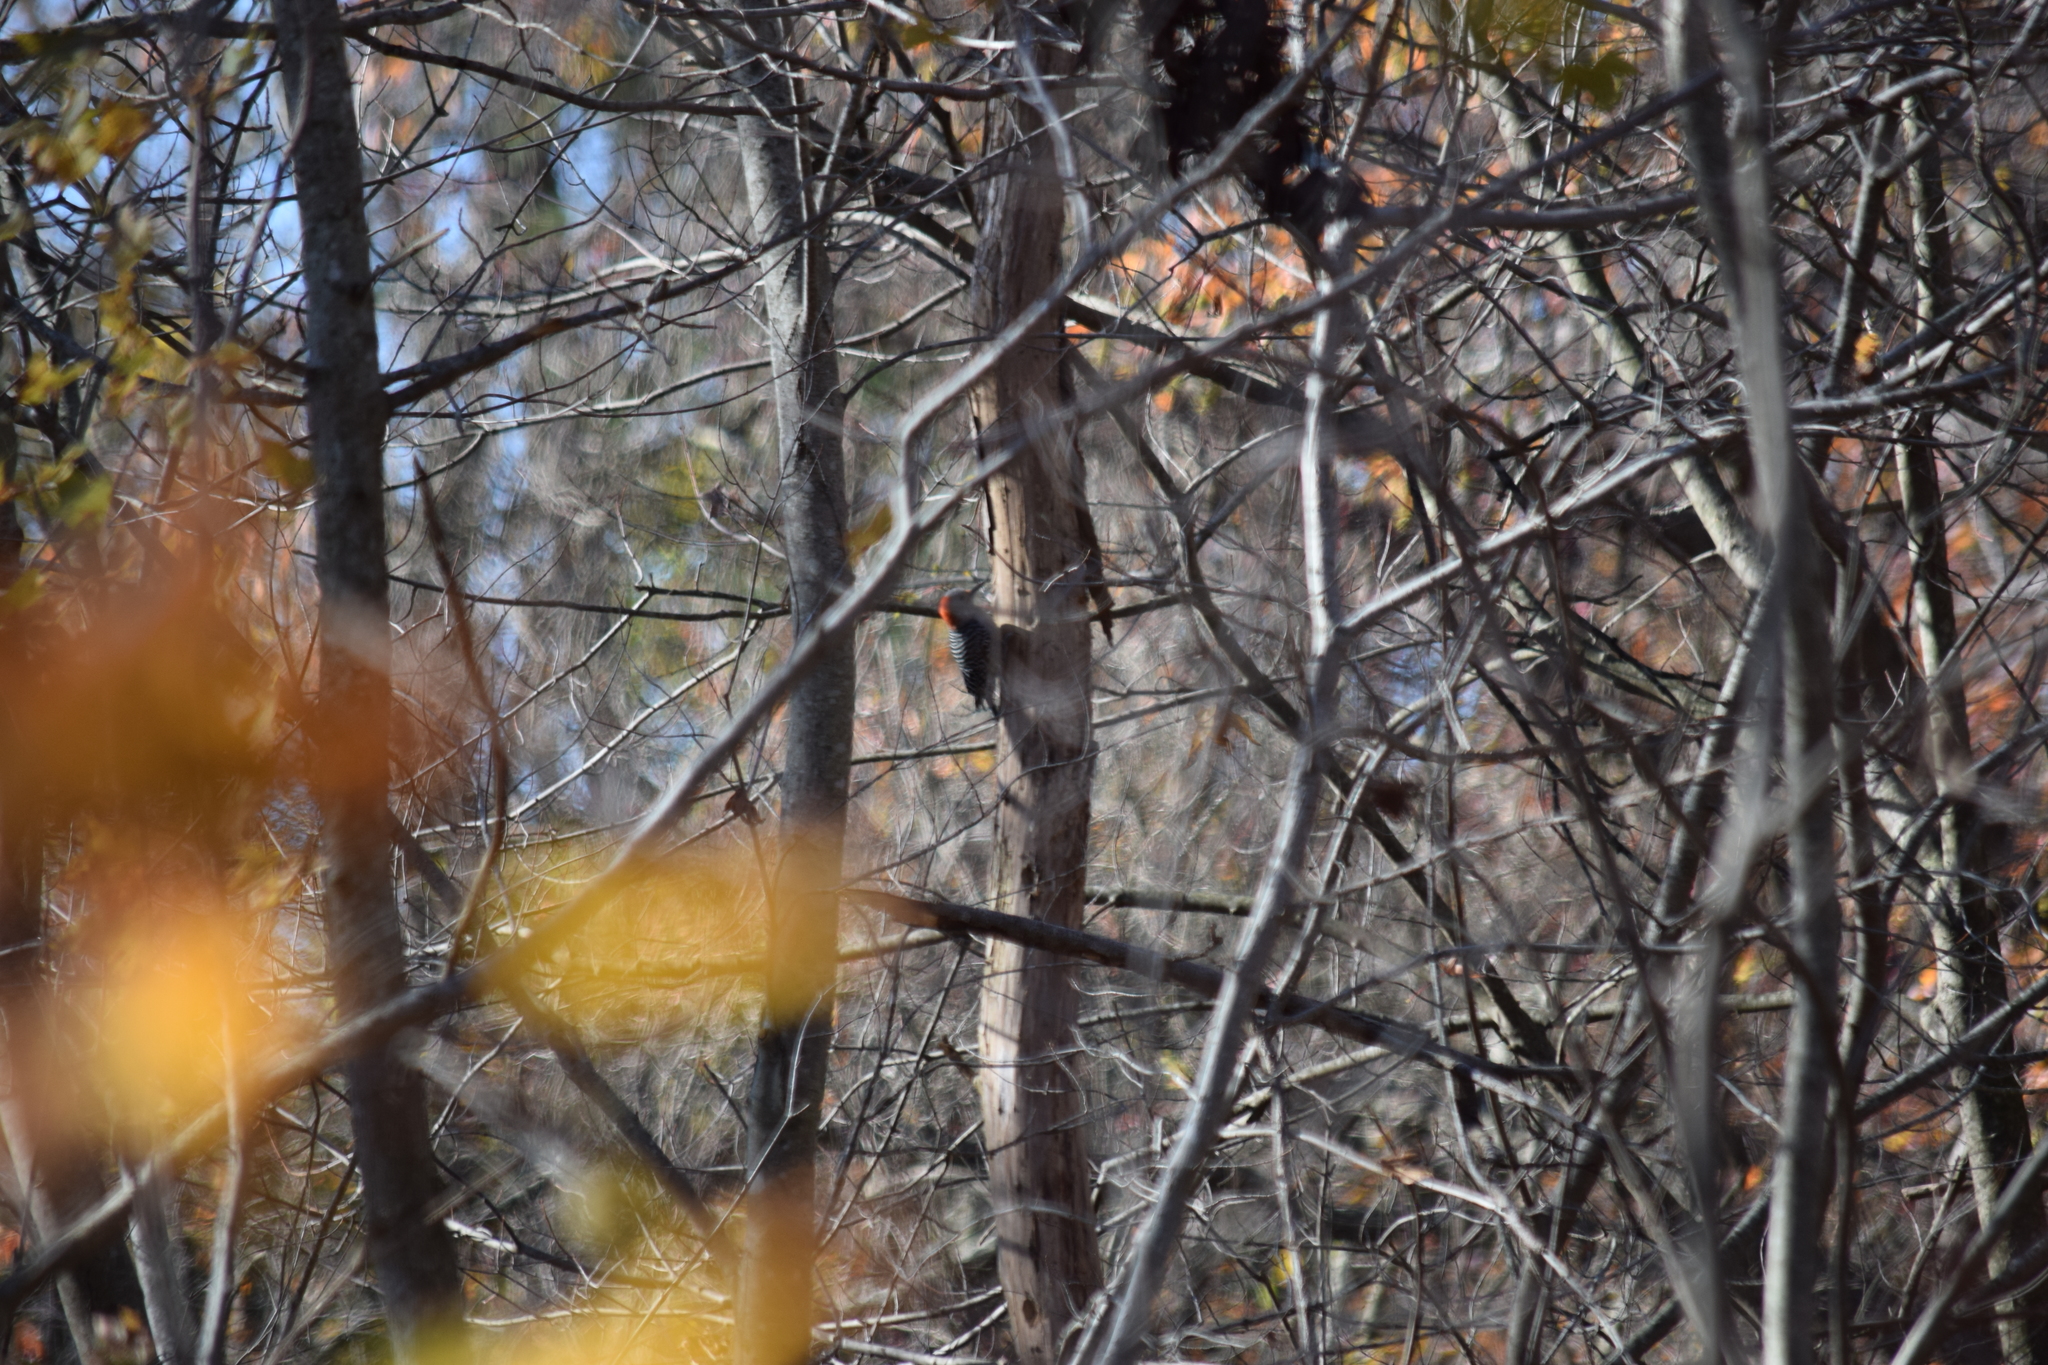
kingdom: Animalia
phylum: Chordata
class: Aves
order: Piciformes
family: Picidae
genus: Melanerpes
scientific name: Melanerpes carolinus
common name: Red-bellied woodpecker
